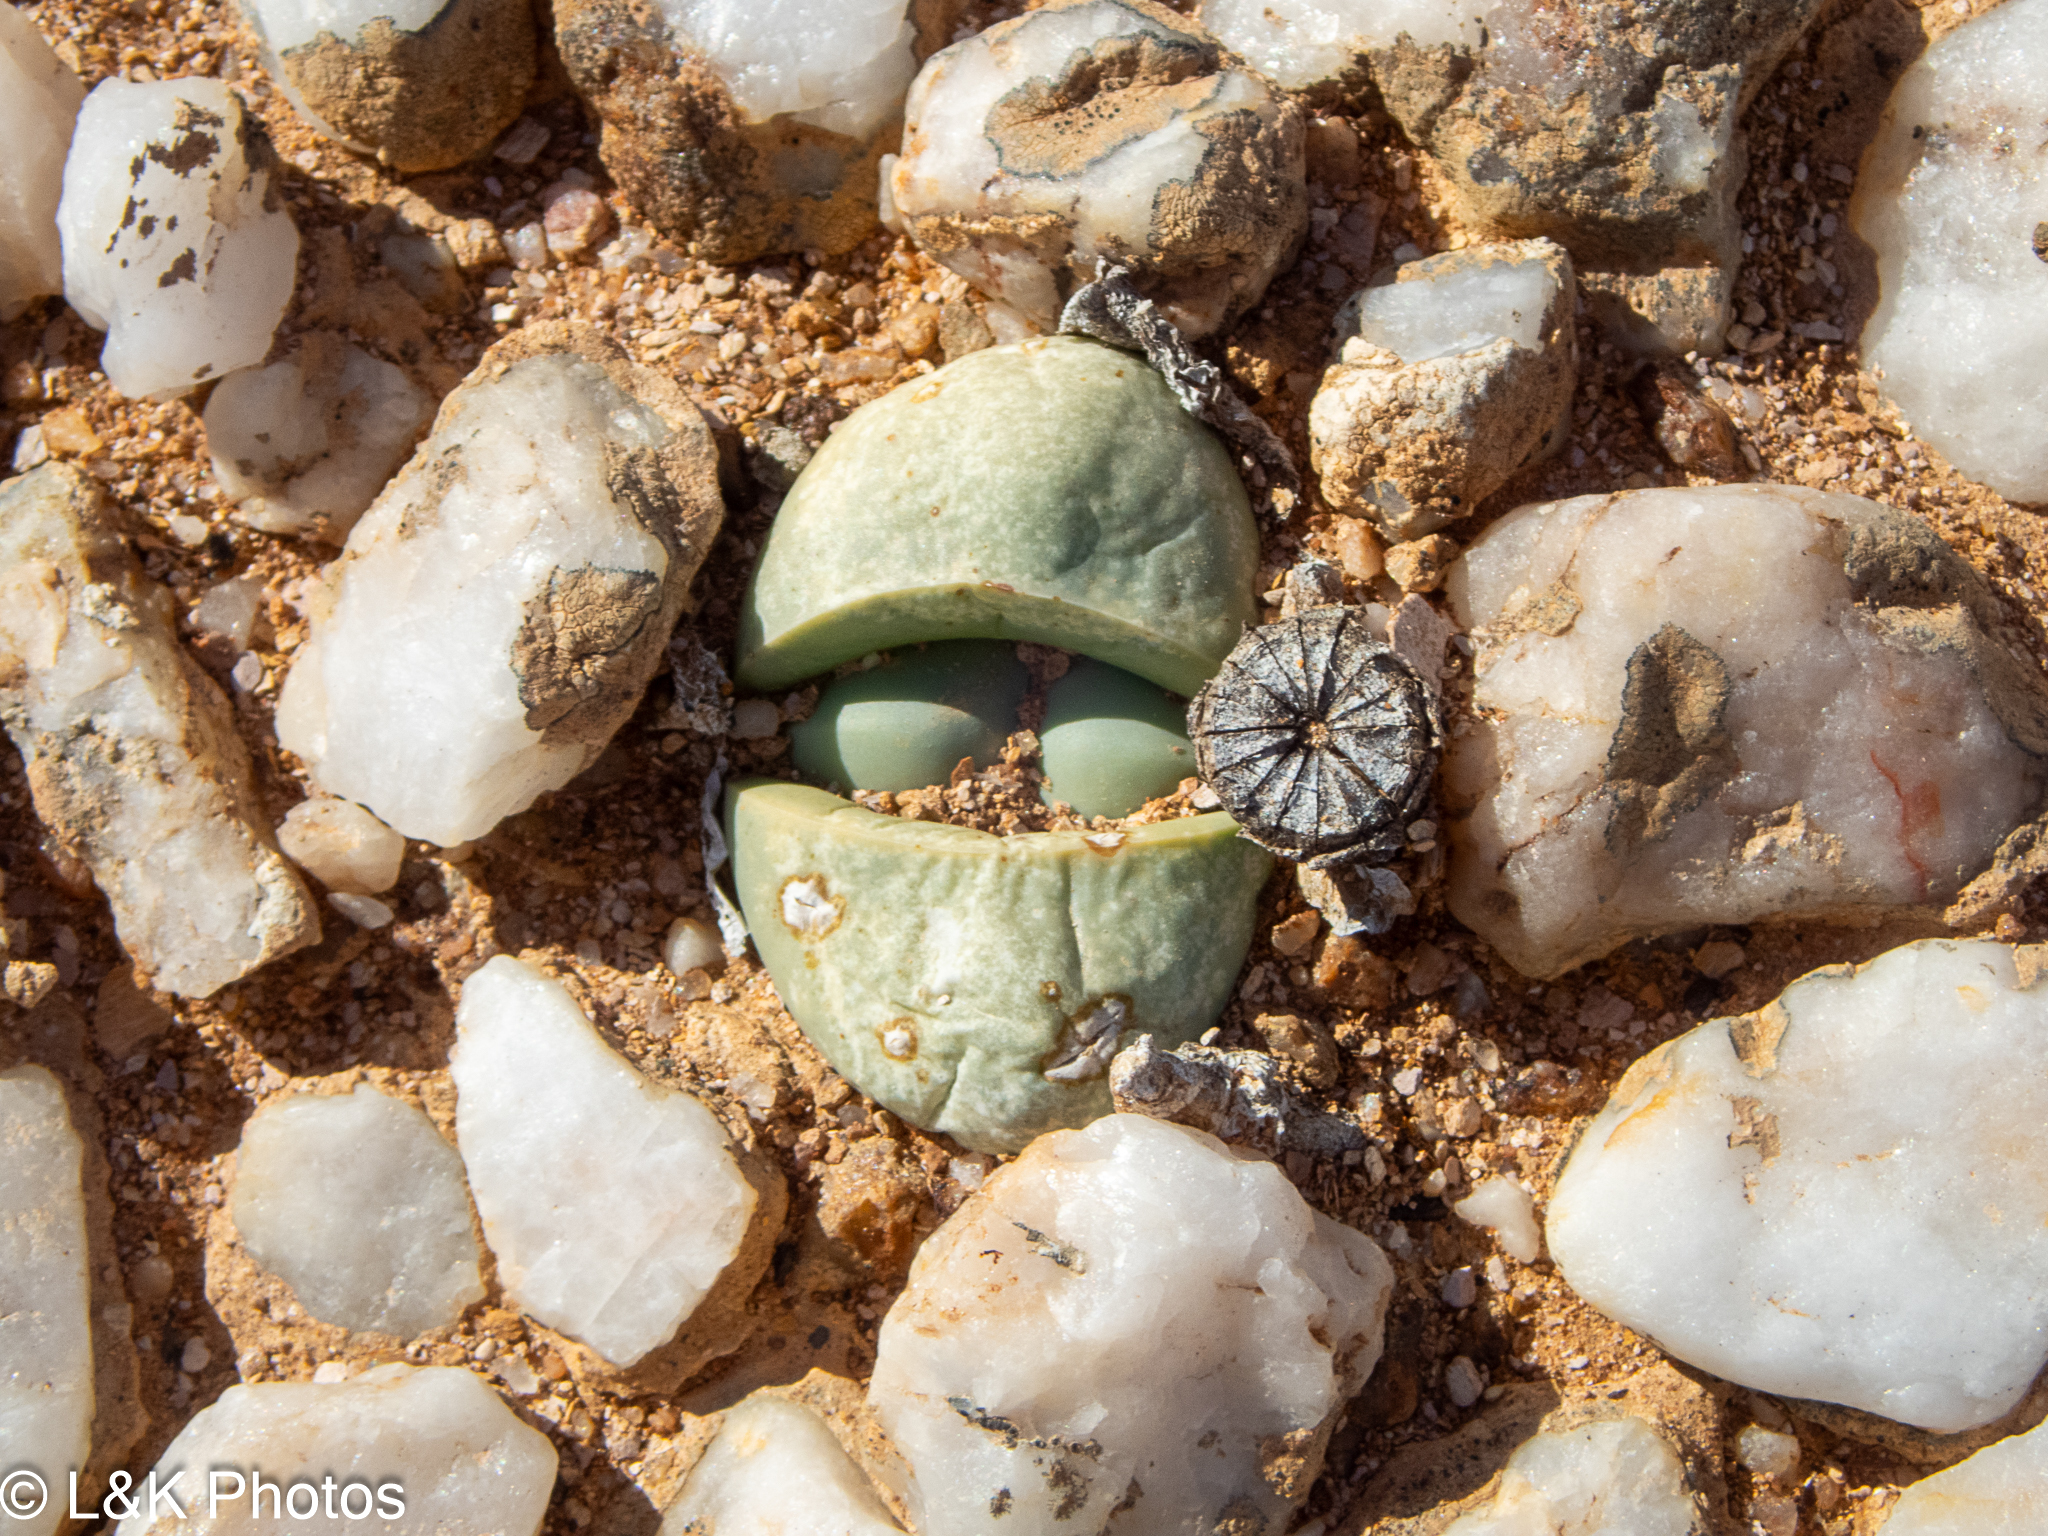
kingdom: Plantae
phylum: Tracheophyta
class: Magnoliopsida
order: Caryophyllales
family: Aizoaceae
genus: Argyroderma
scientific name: Argyroderma delaetii
